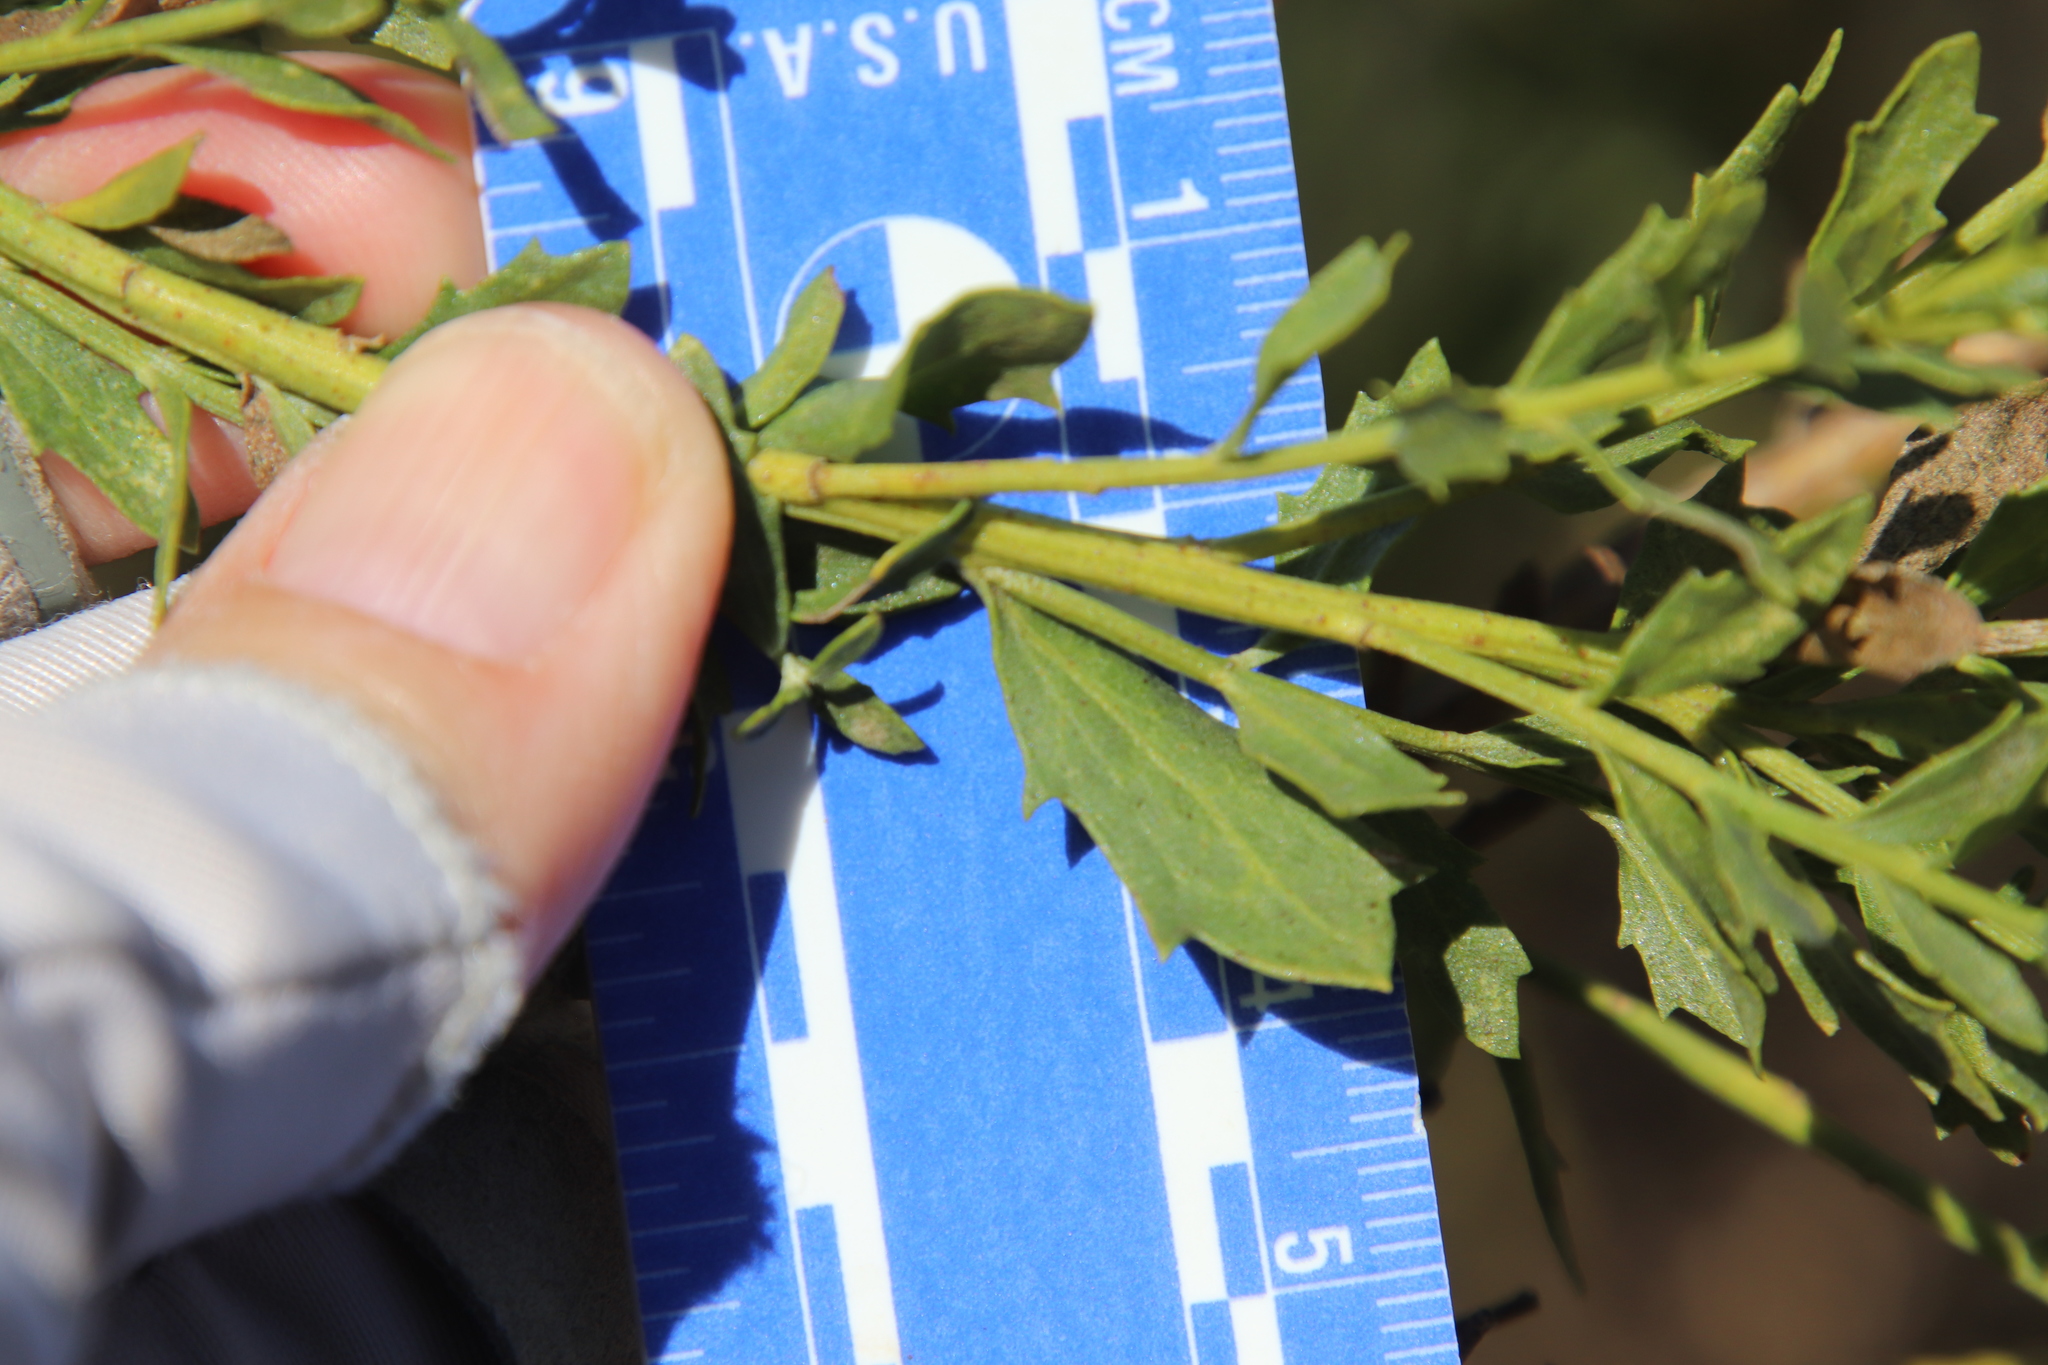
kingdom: Plantae
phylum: Tracheophyta
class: Magnoliopsida
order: Asterales
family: Asteraceae
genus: Baccharis
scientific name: Baccharis pilularis
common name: Coyotebrush
